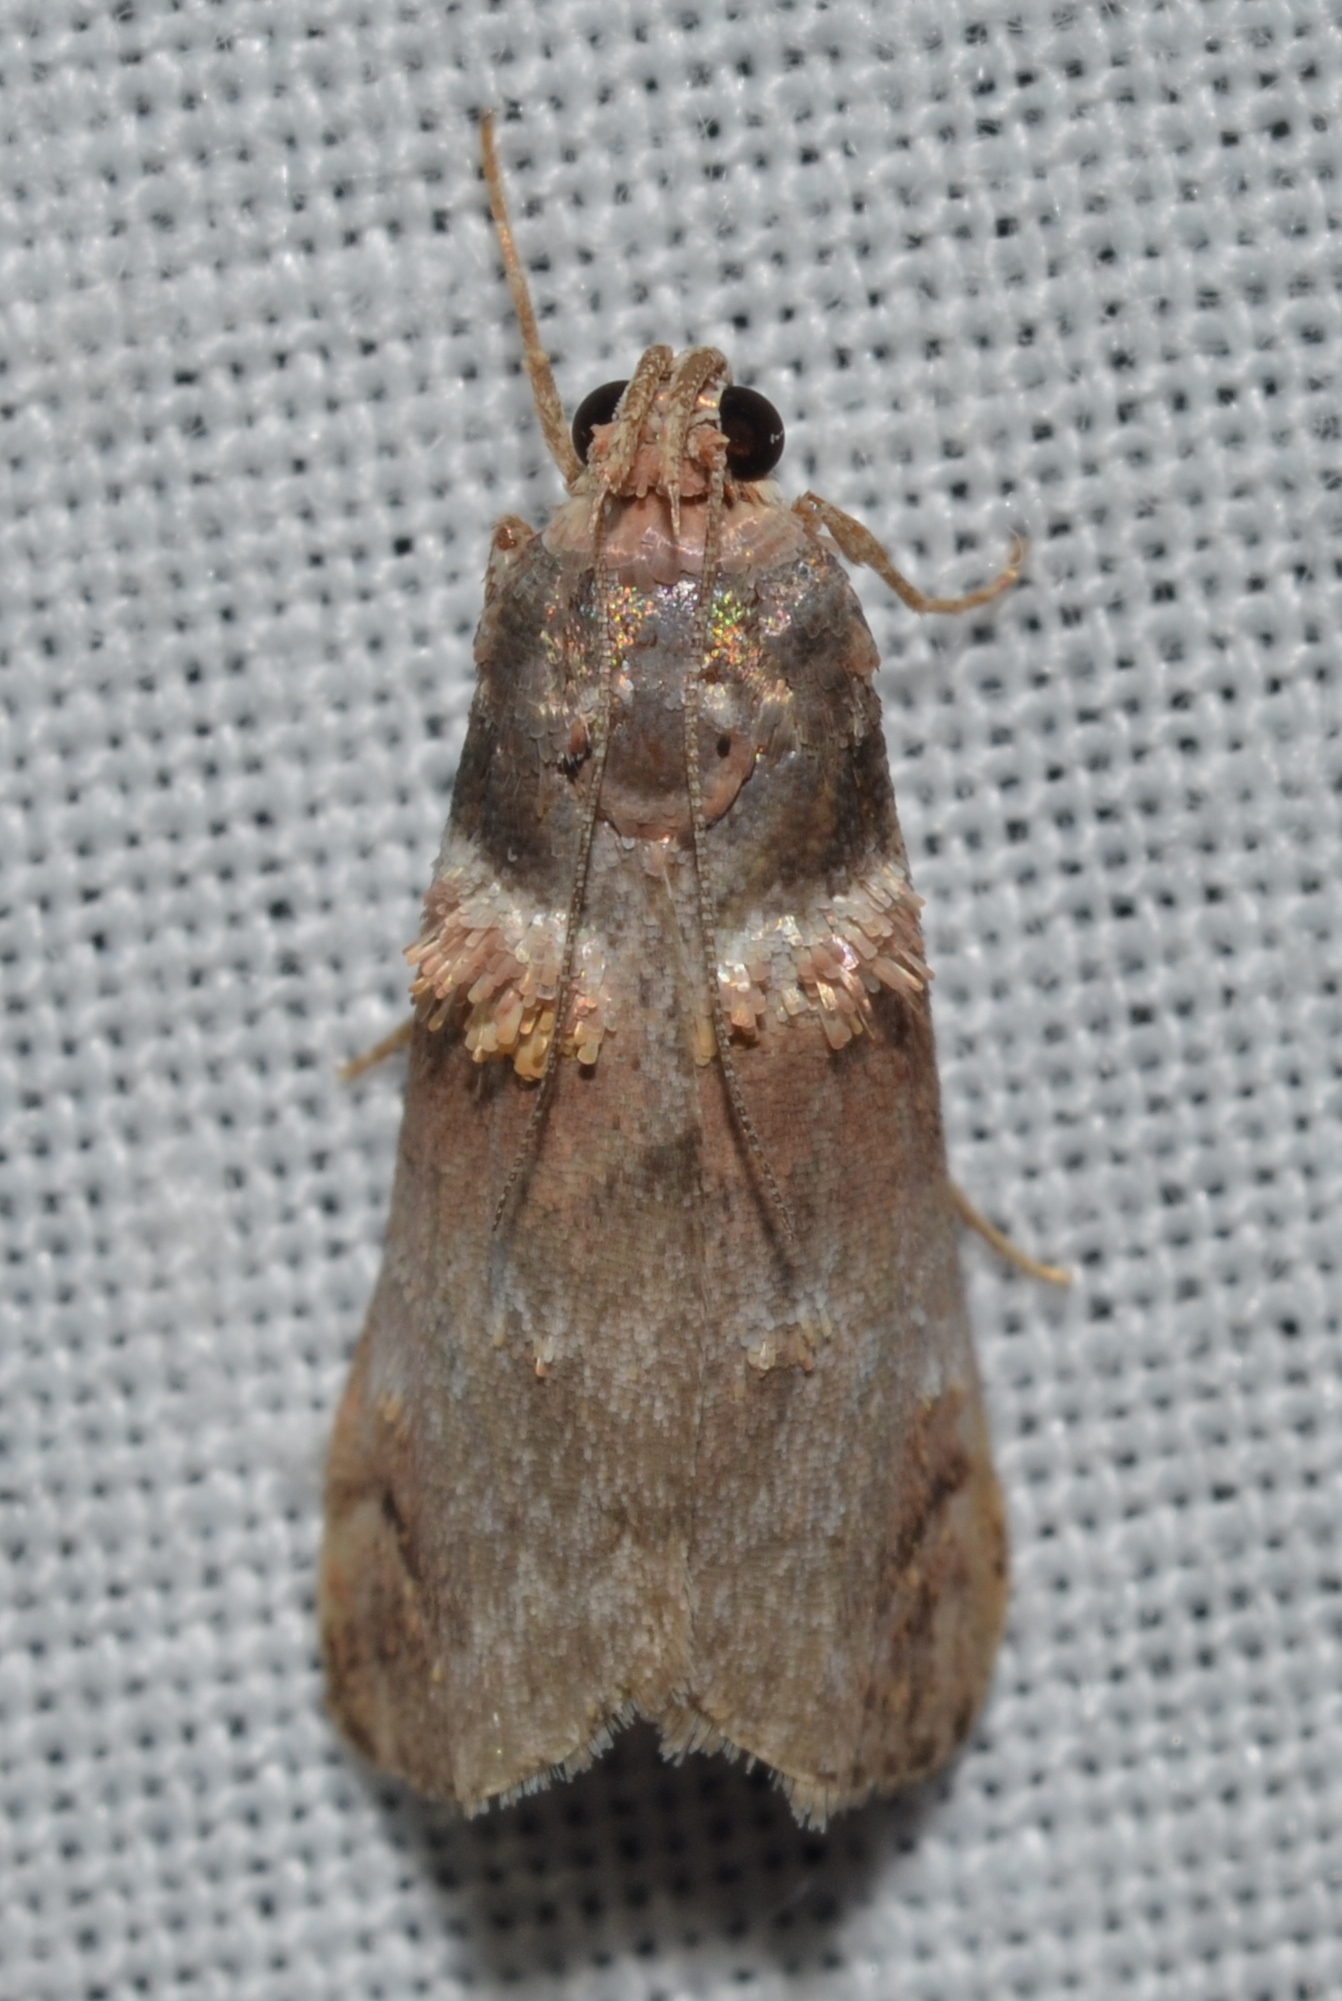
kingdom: Animalia
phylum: Arthropoda
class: Insecta
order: Lepidoptera
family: Pyralidae
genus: Oneida
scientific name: Oneida lunulalis
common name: Orange-tufted oneida moth
